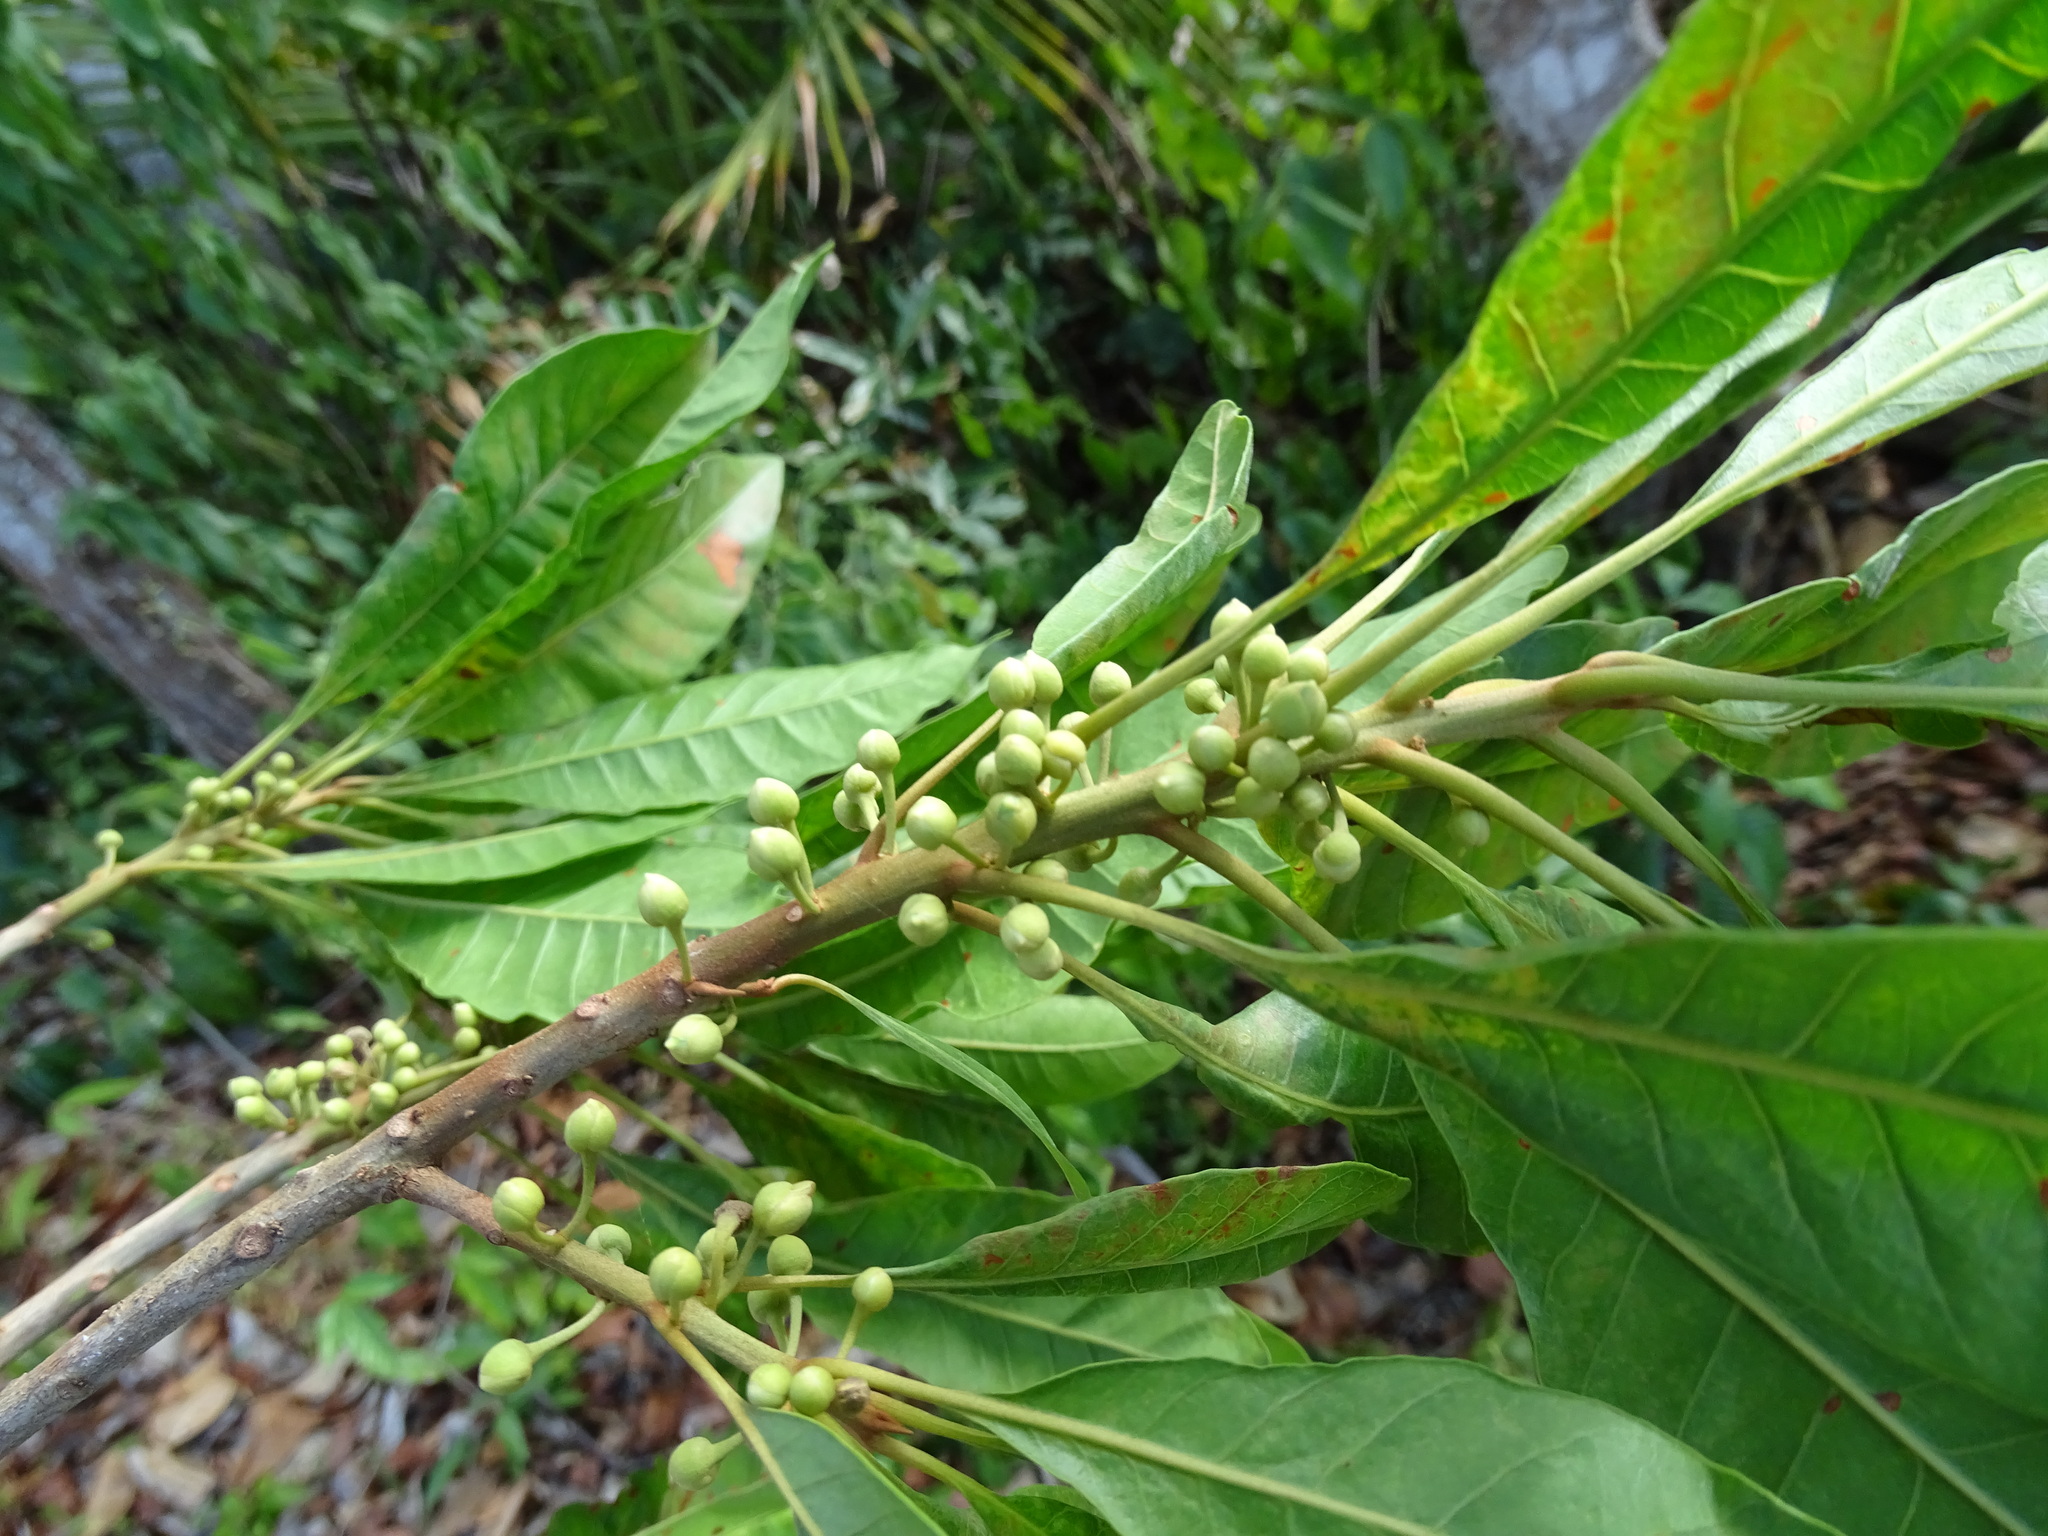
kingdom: Plantae
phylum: Tracheophyta
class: Magnoliopsida
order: Ericales
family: Sapotaceae
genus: Pouteria
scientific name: Pouteria campechiana
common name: Canistel
